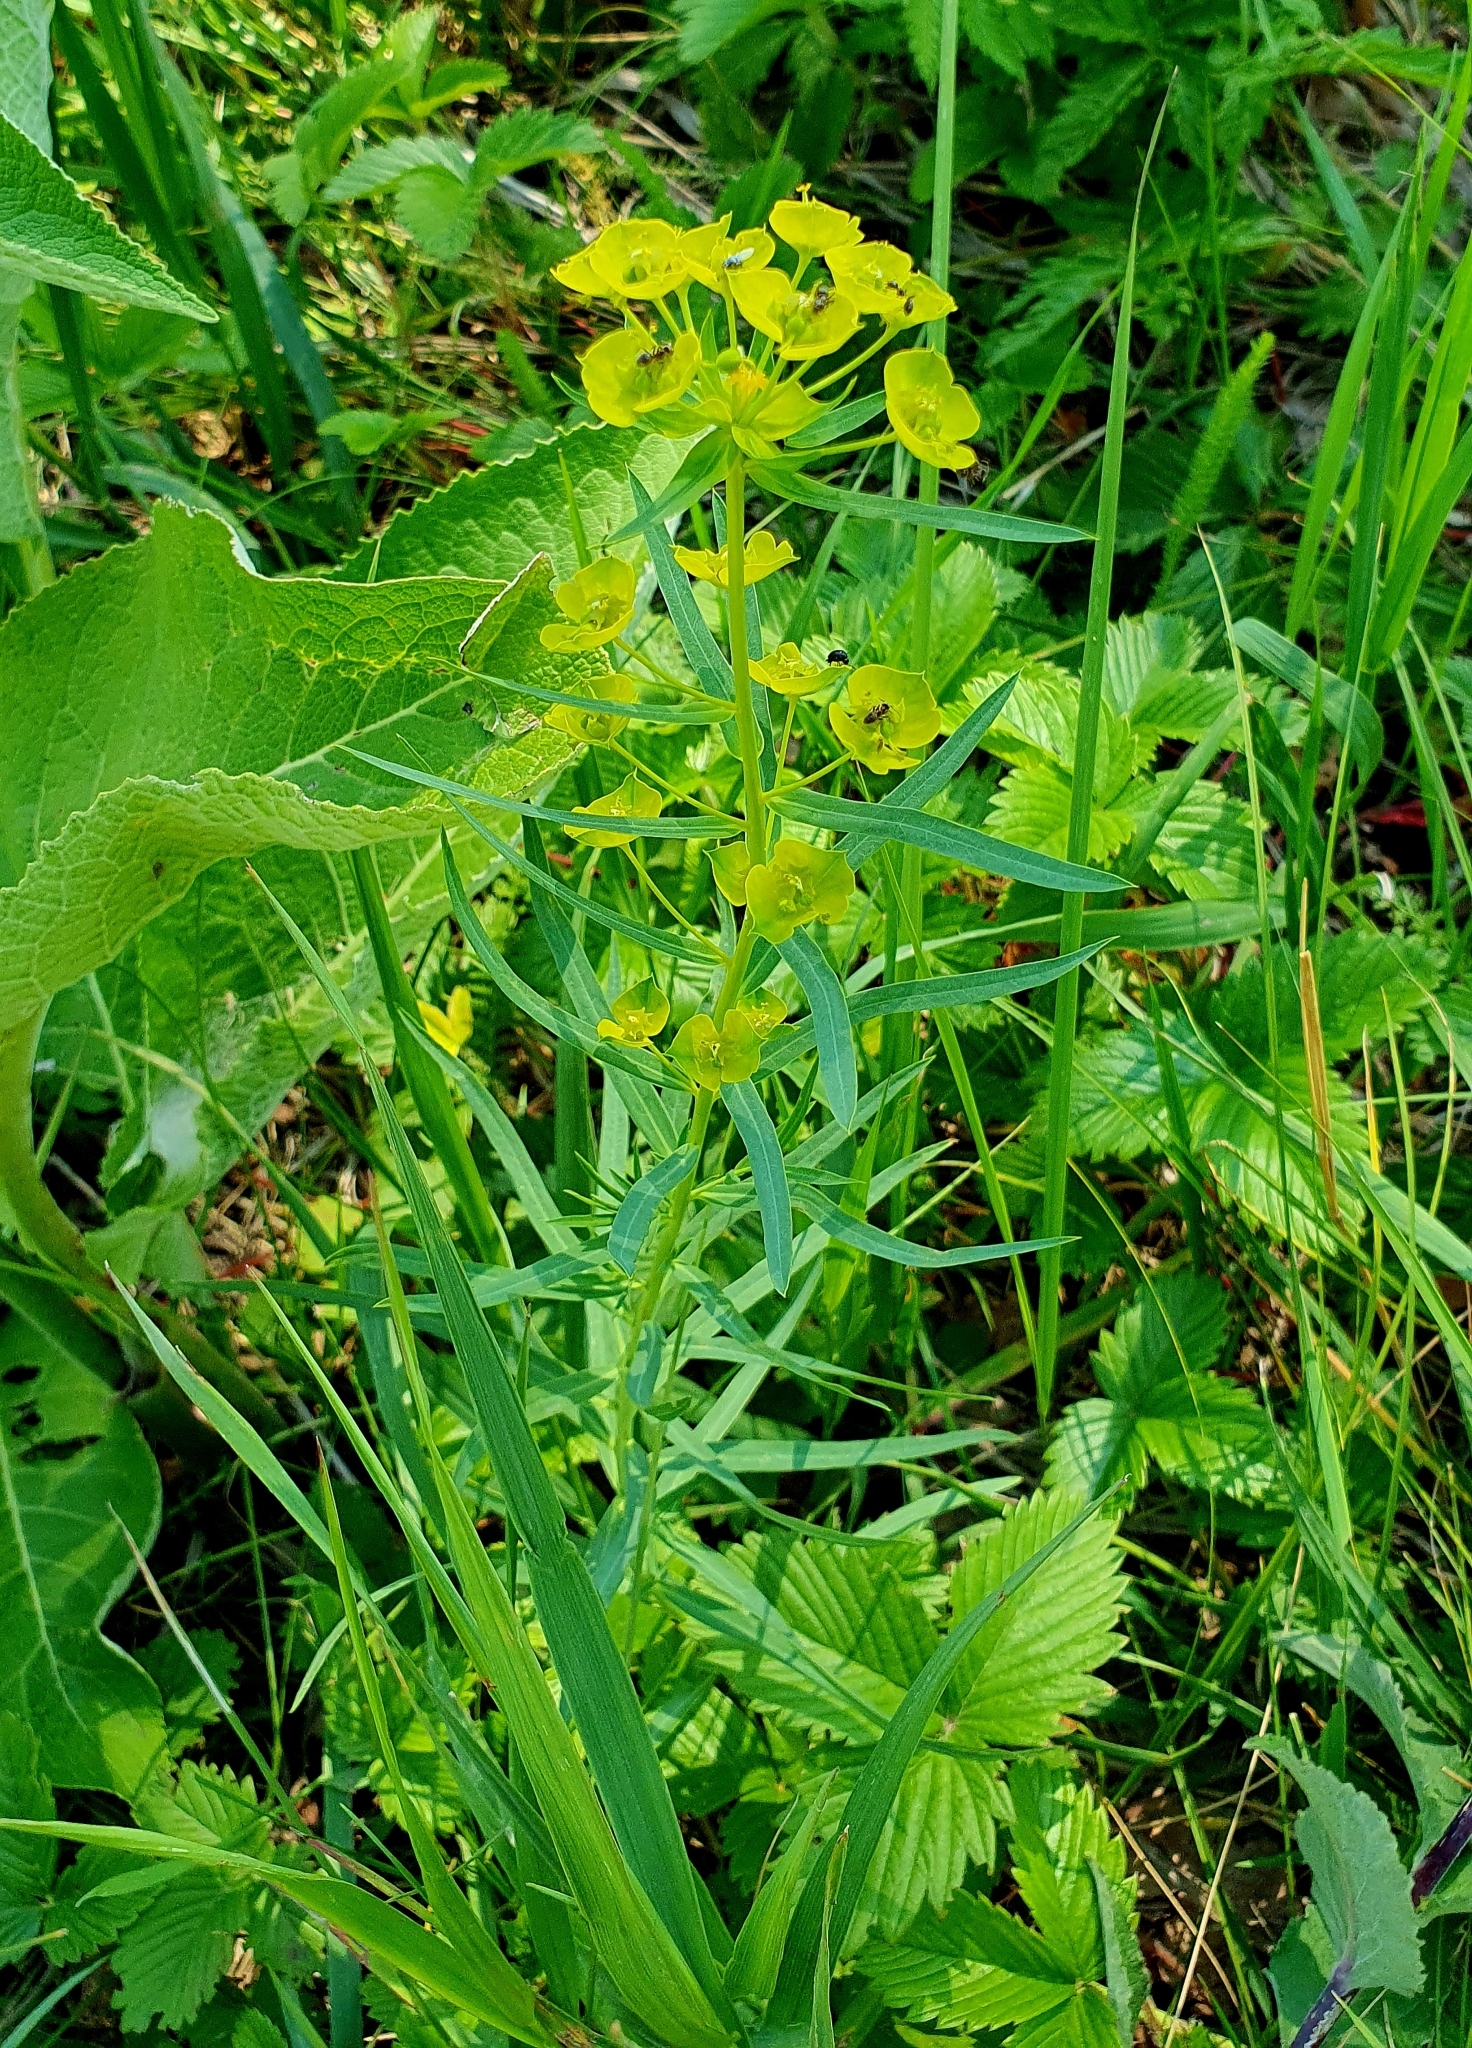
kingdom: Plantae
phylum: Tracheophyta
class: Magnoliopsida
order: Malpighiales
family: Euphorbiaceae
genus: Euphorbia
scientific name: Euphorbia virgata
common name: Leafy spurge
